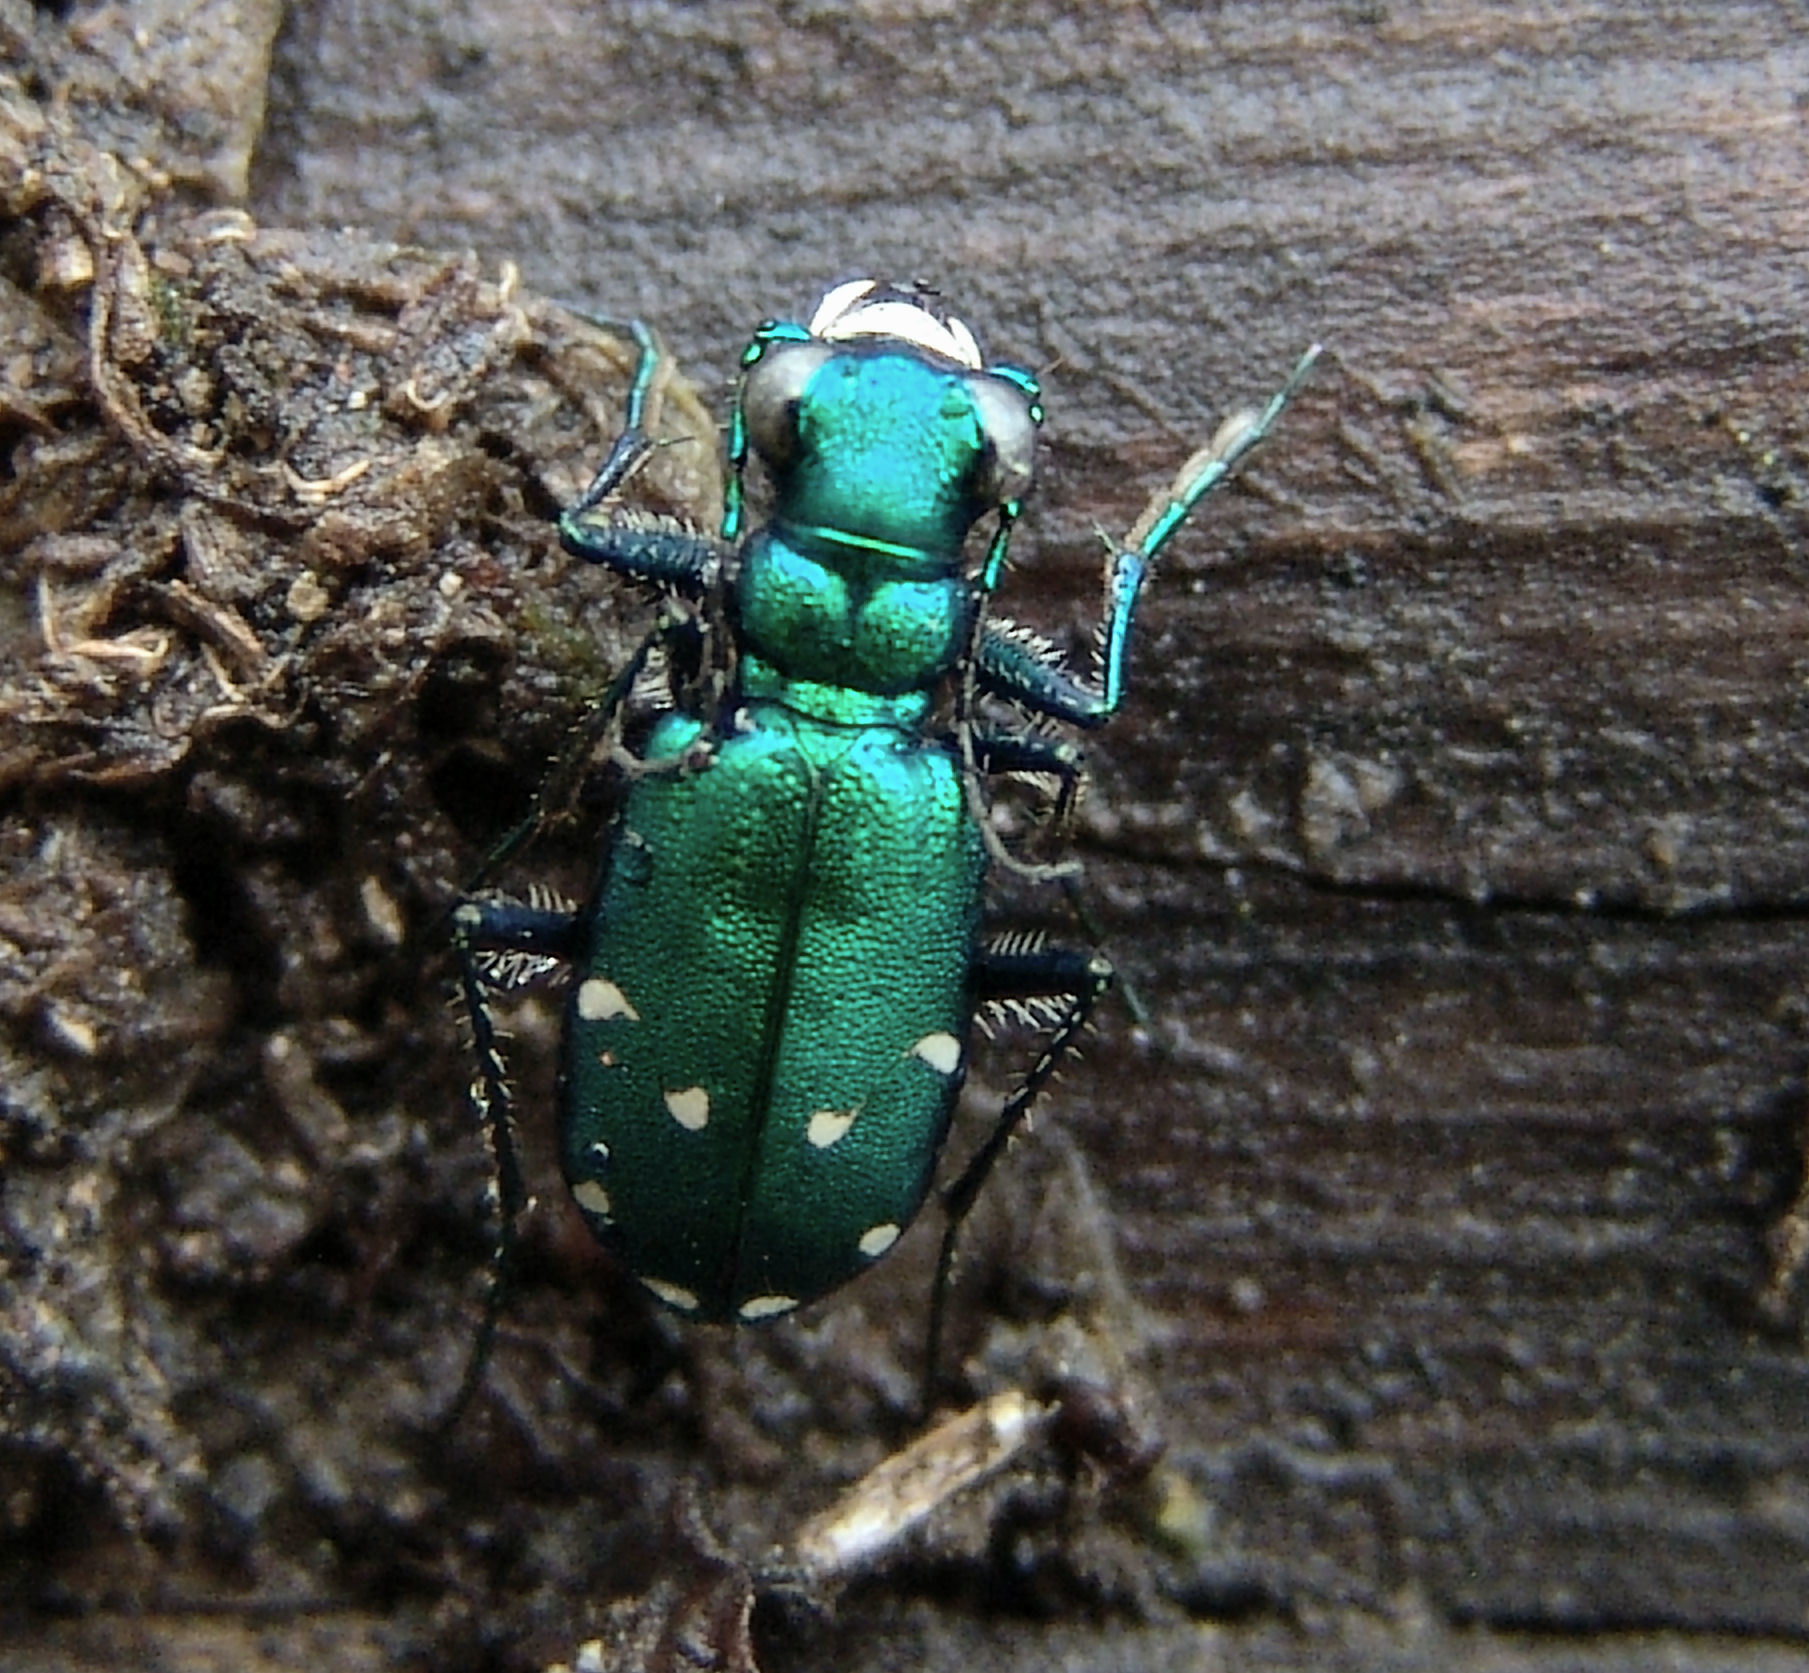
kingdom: Animalia
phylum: Arthropoda
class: Insecta
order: Coleoptera
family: Carabidae
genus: Cicindela
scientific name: Cicindela sexguttata
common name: Six-spotted tiger beetle
